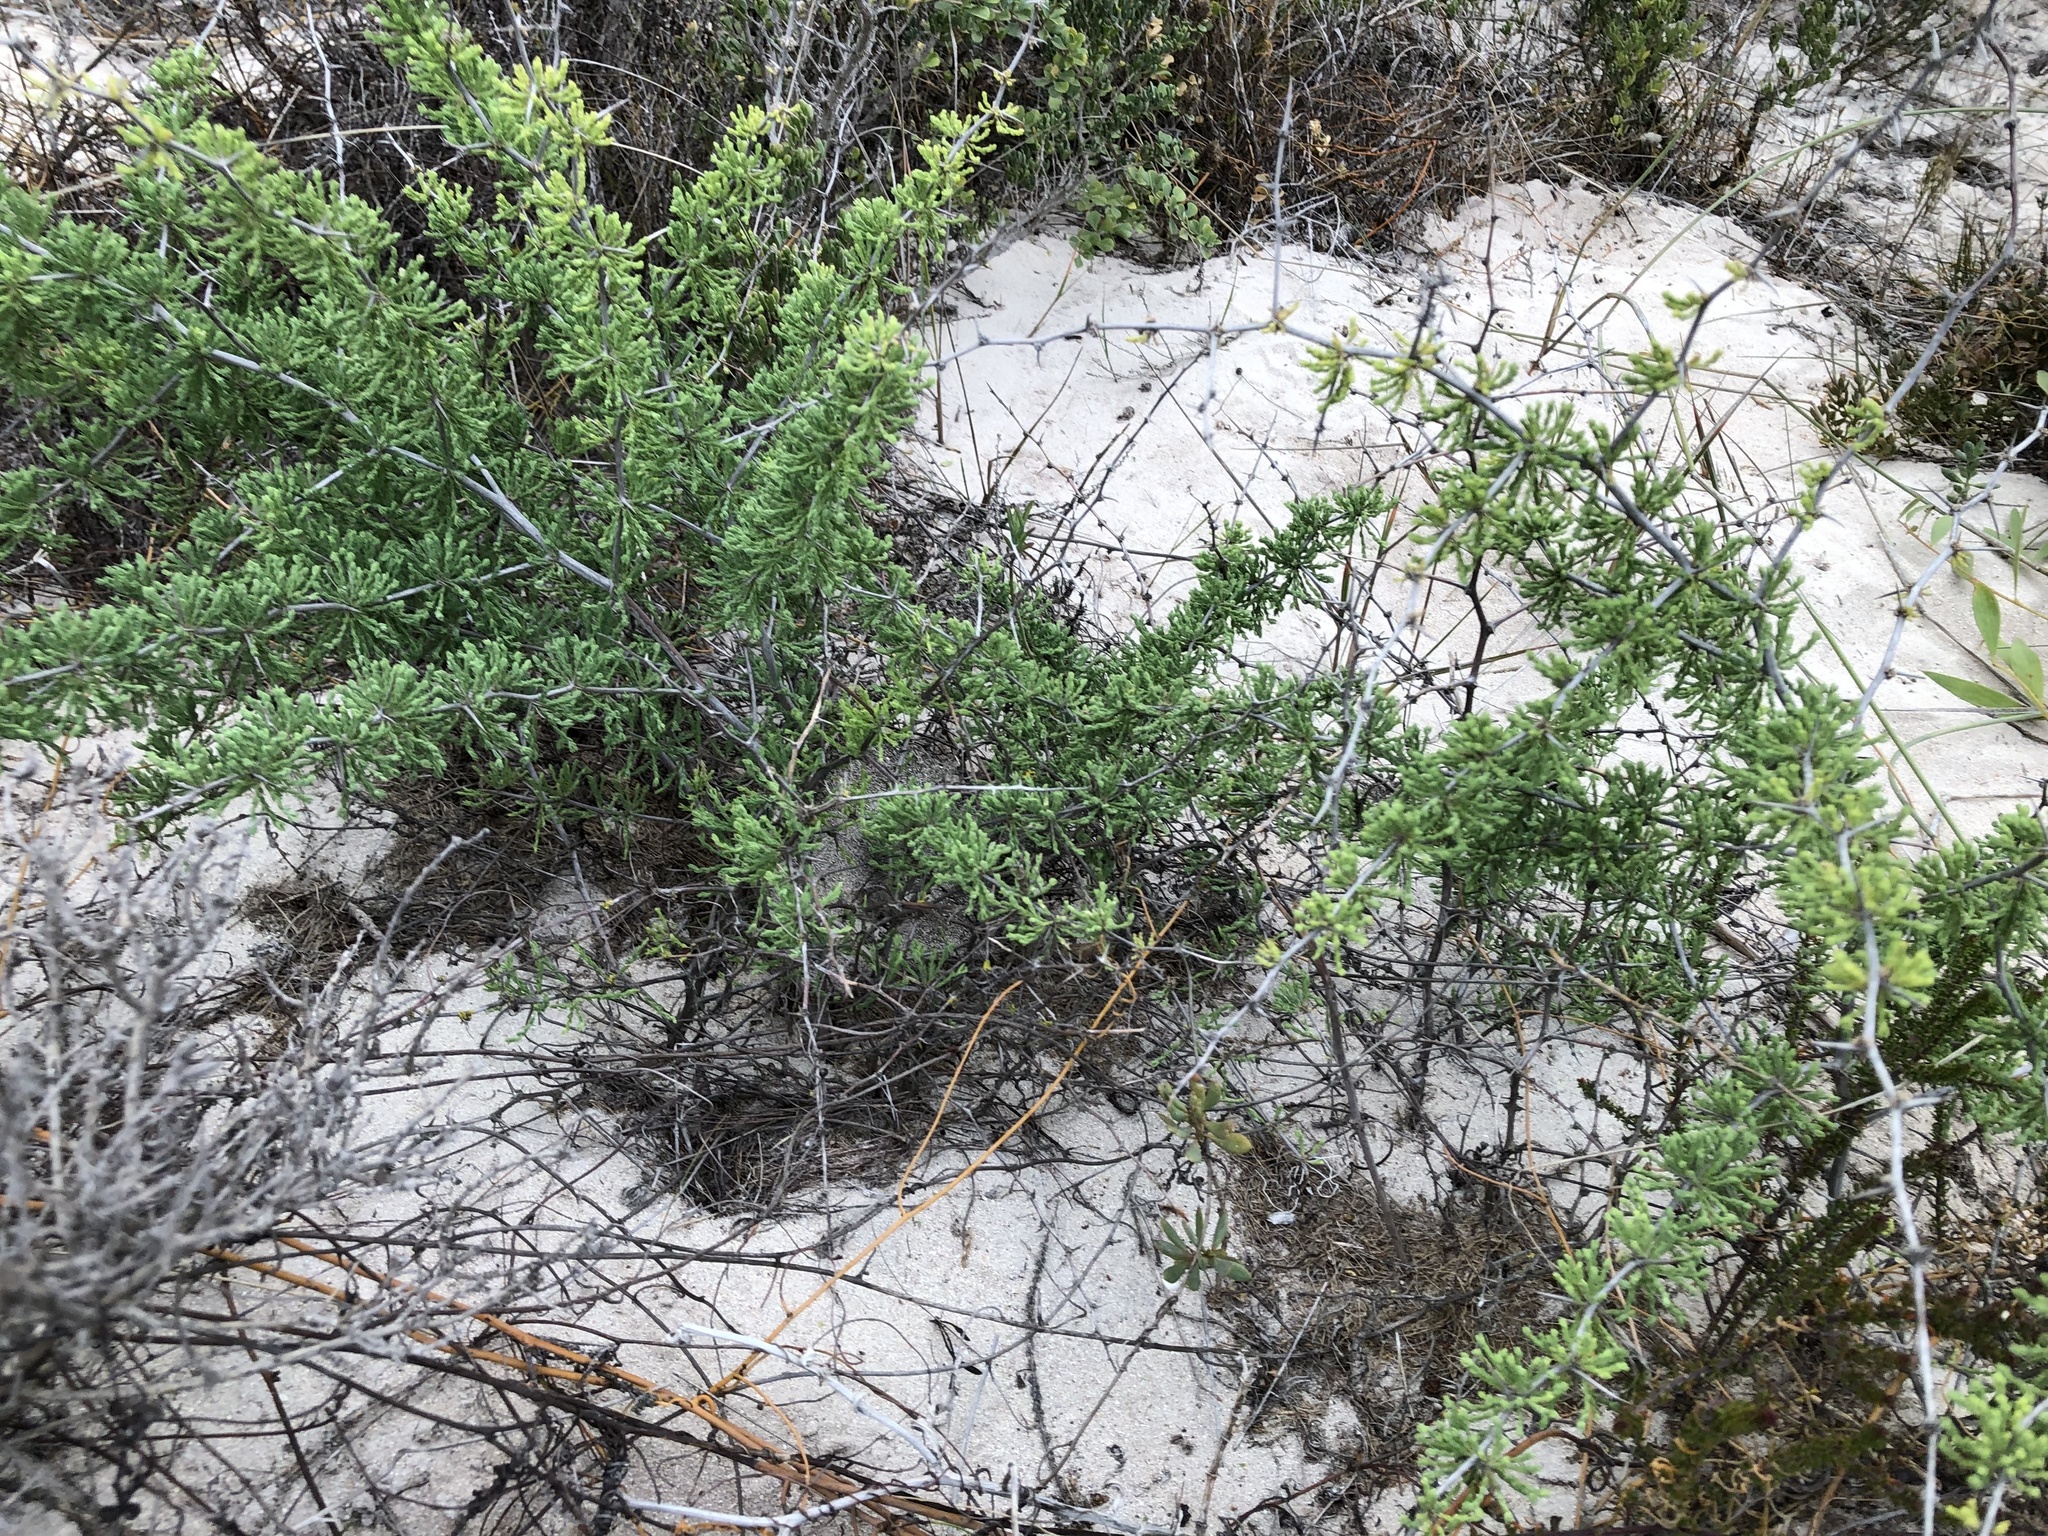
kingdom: Plantae
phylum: Tracheophyta
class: Liliopsida
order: Asparagales
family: Asparagaceae
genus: Asparagus
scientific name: Asparagus capensis
